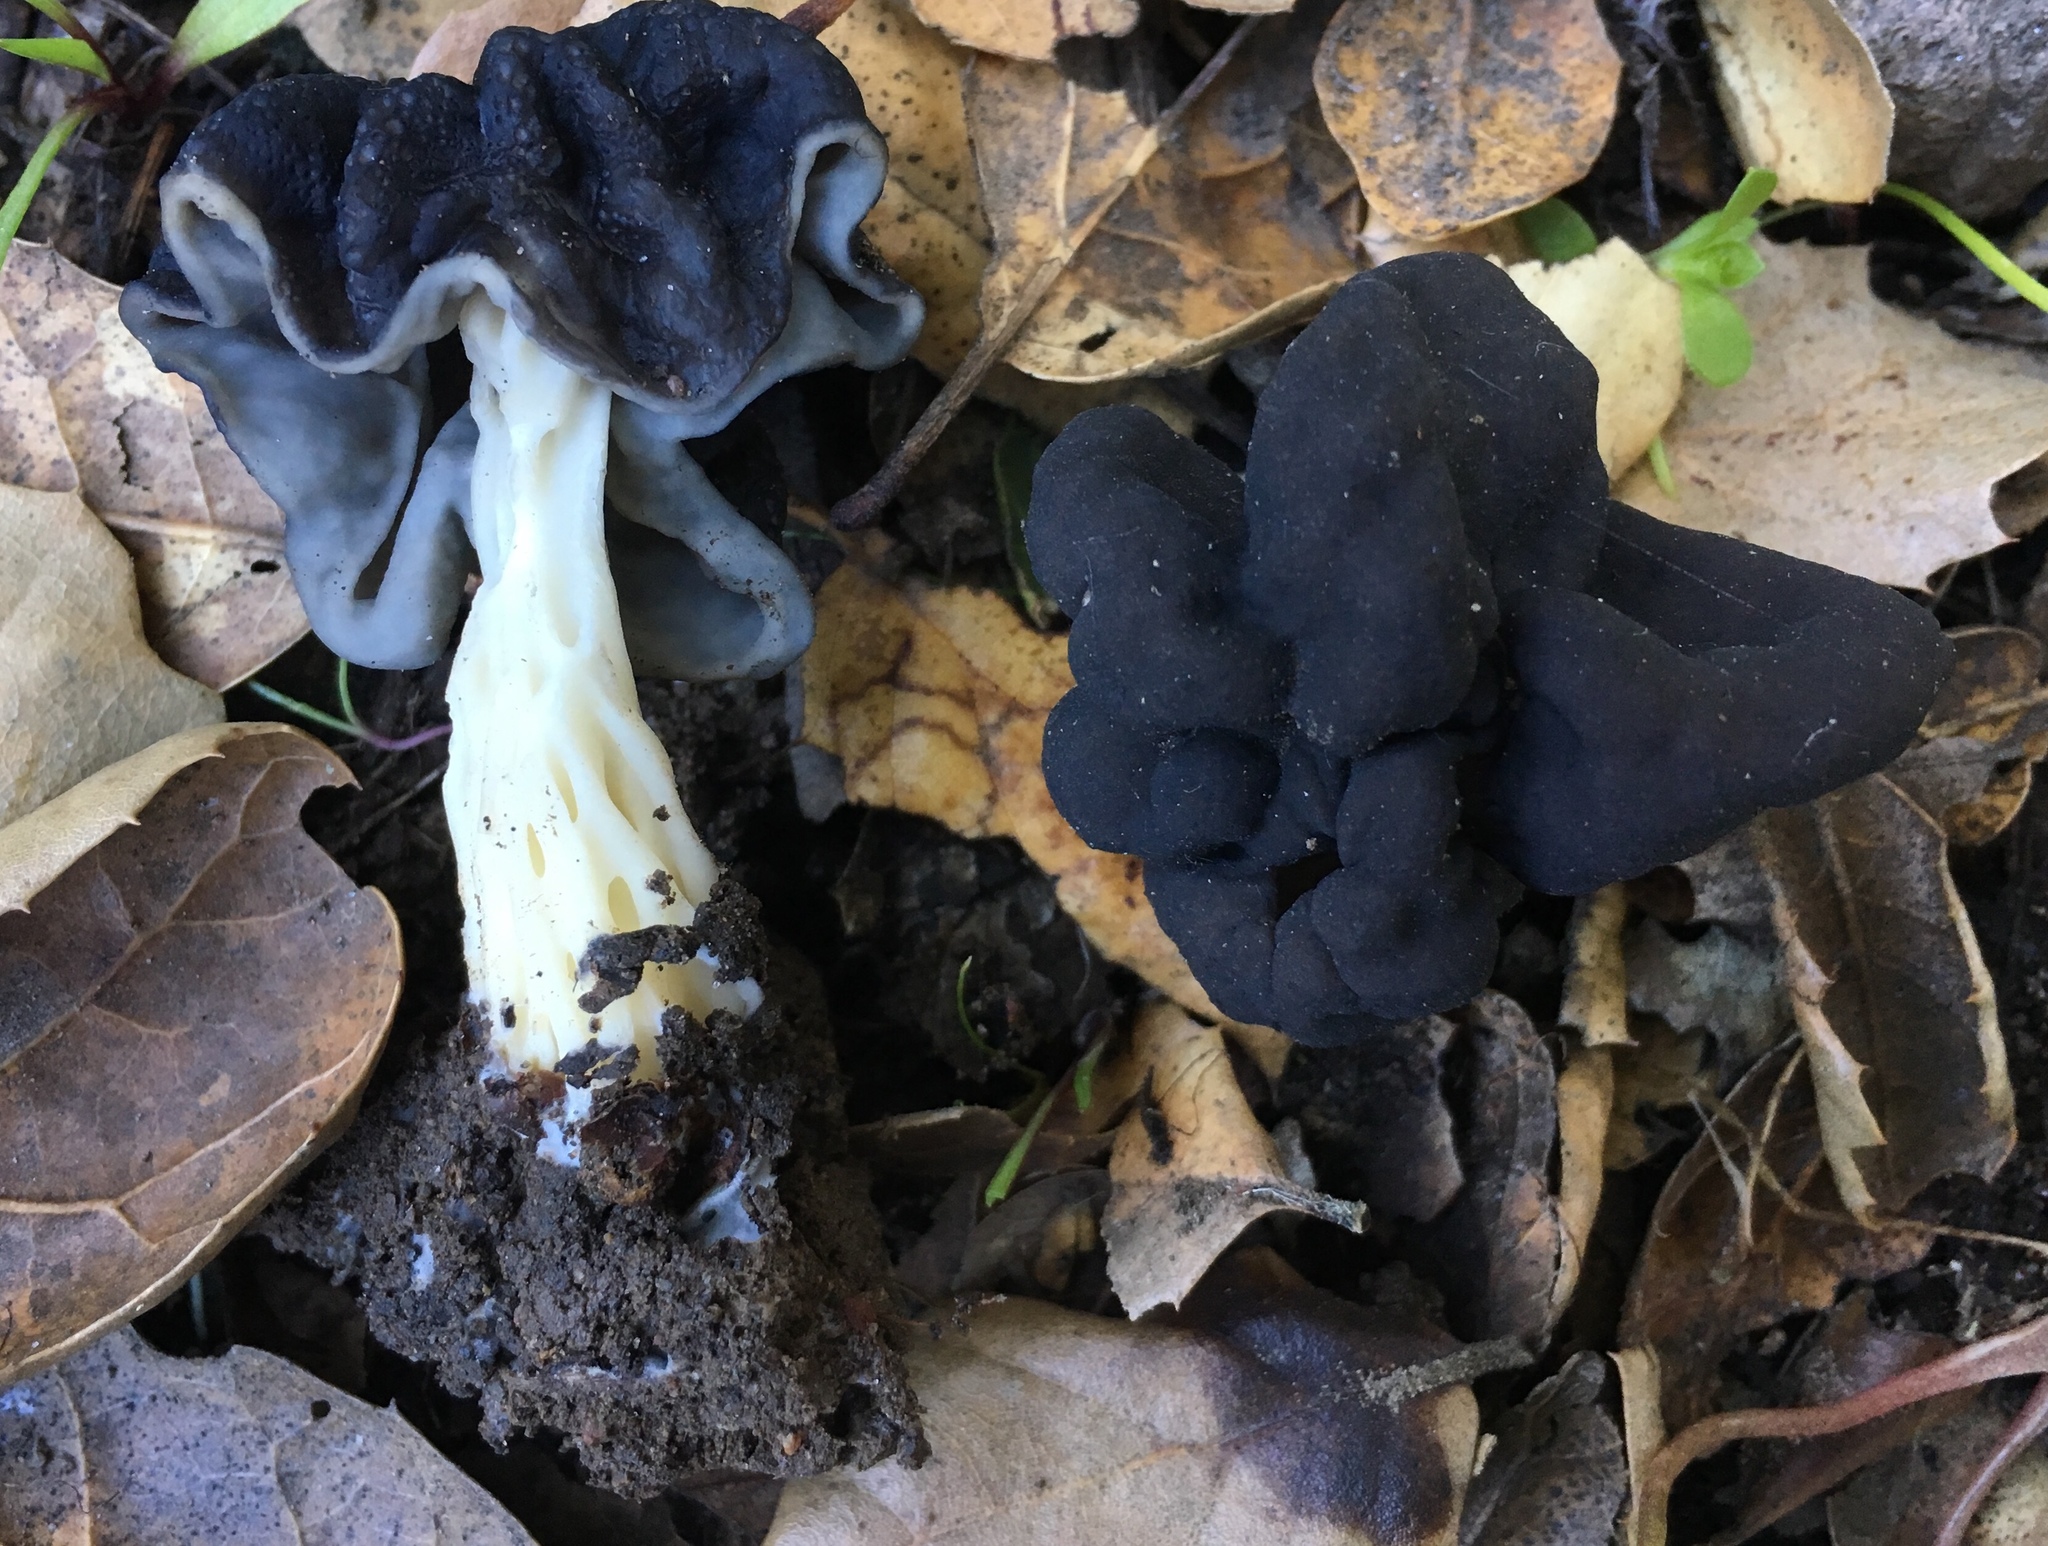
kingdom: Fungi
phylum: Ascomycota
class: Pezizomycetes
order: Pezizales
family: Helvellaceae
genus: Helvella
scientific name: Helvella dryophila
